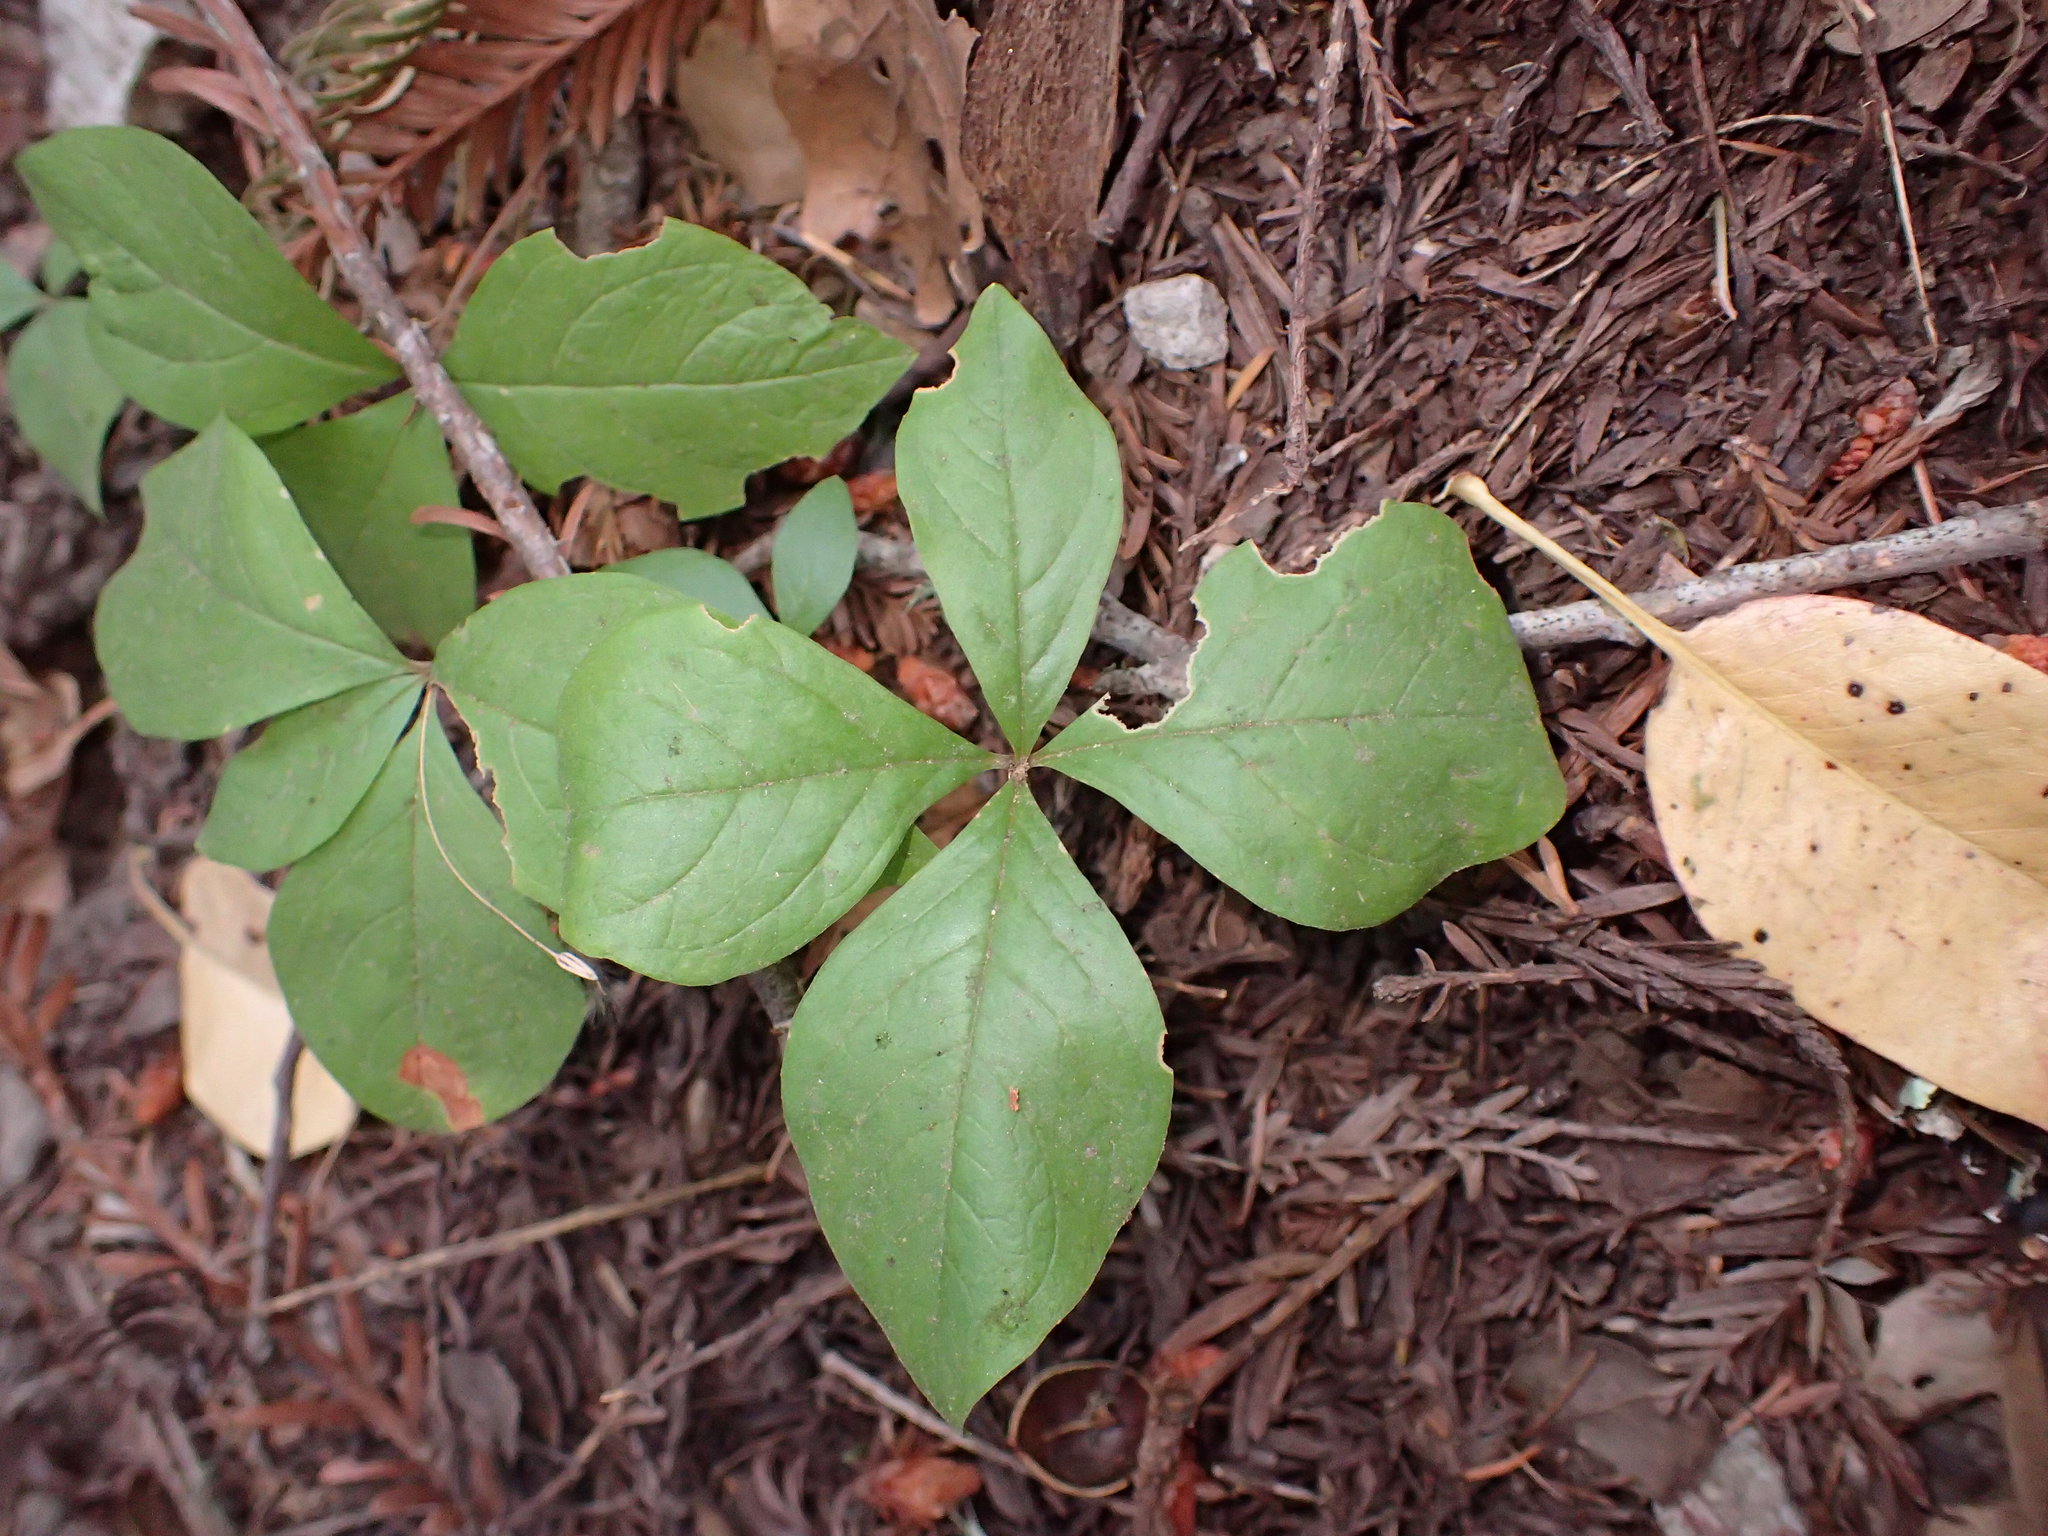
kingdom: Plantae
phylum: Tracheophyta
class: Magnoliopsida
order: Ericales
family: Primulaceae
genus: Lysimachia
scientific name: Lysimachia latifolia
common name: Pacific starflower
